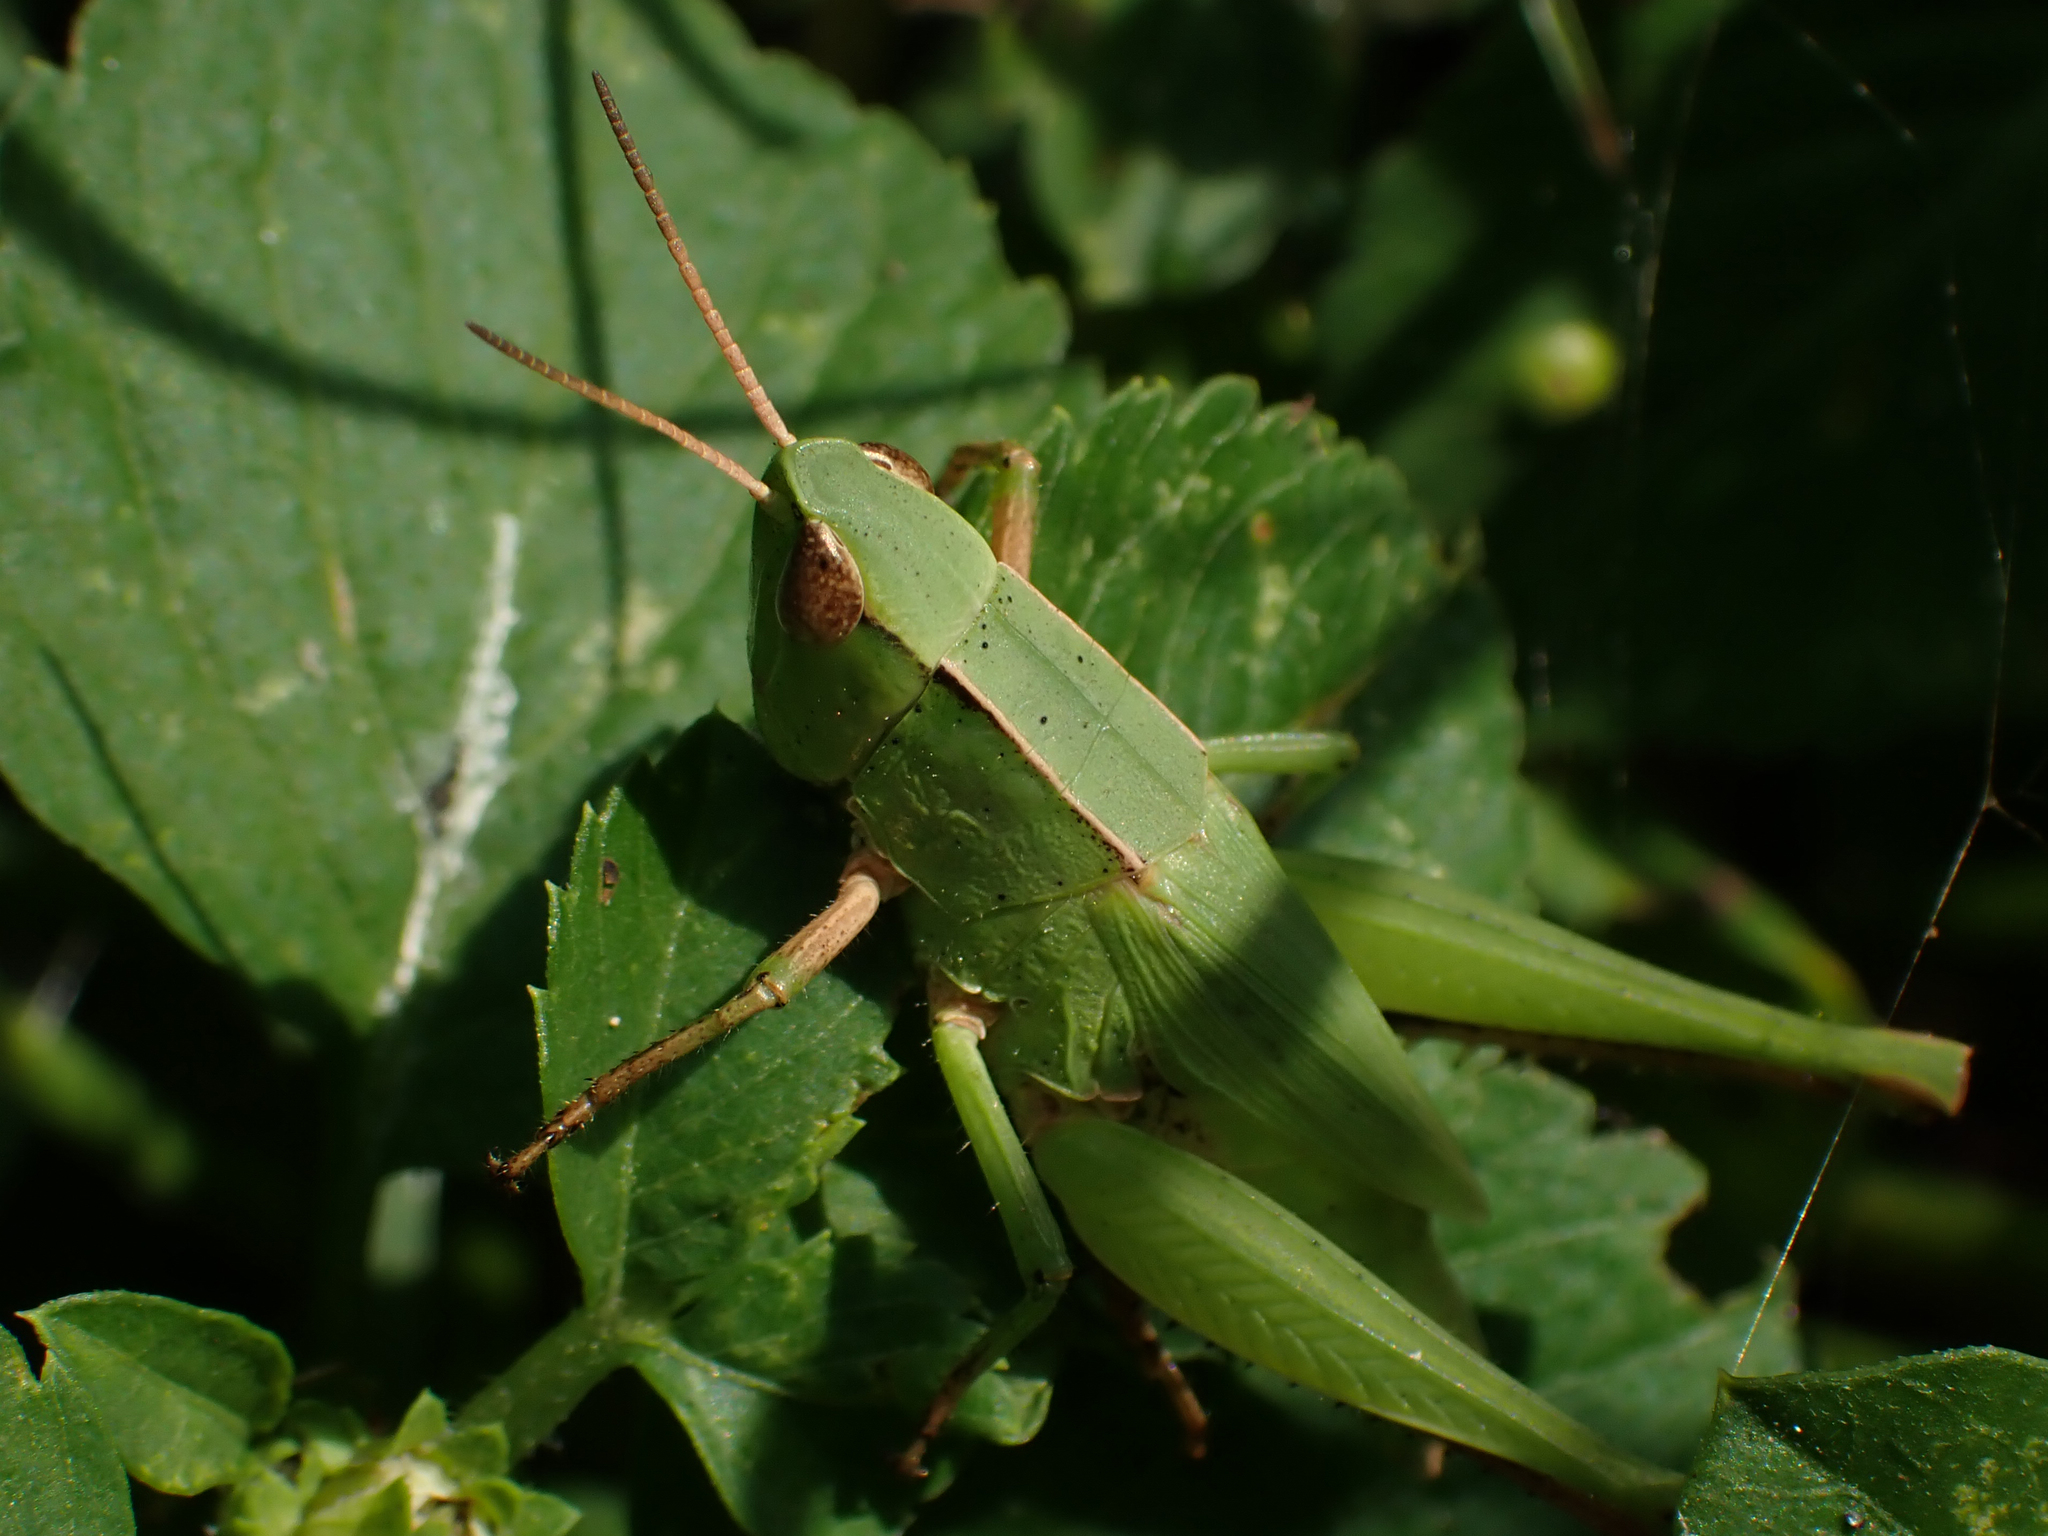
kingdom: Animalia
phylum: Arthropoda
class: Insecta
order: Orthoptera
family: Acrididae
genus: Dichromorpha
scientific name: Dichromorpha viridis
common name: Short-winged green grasshopper
